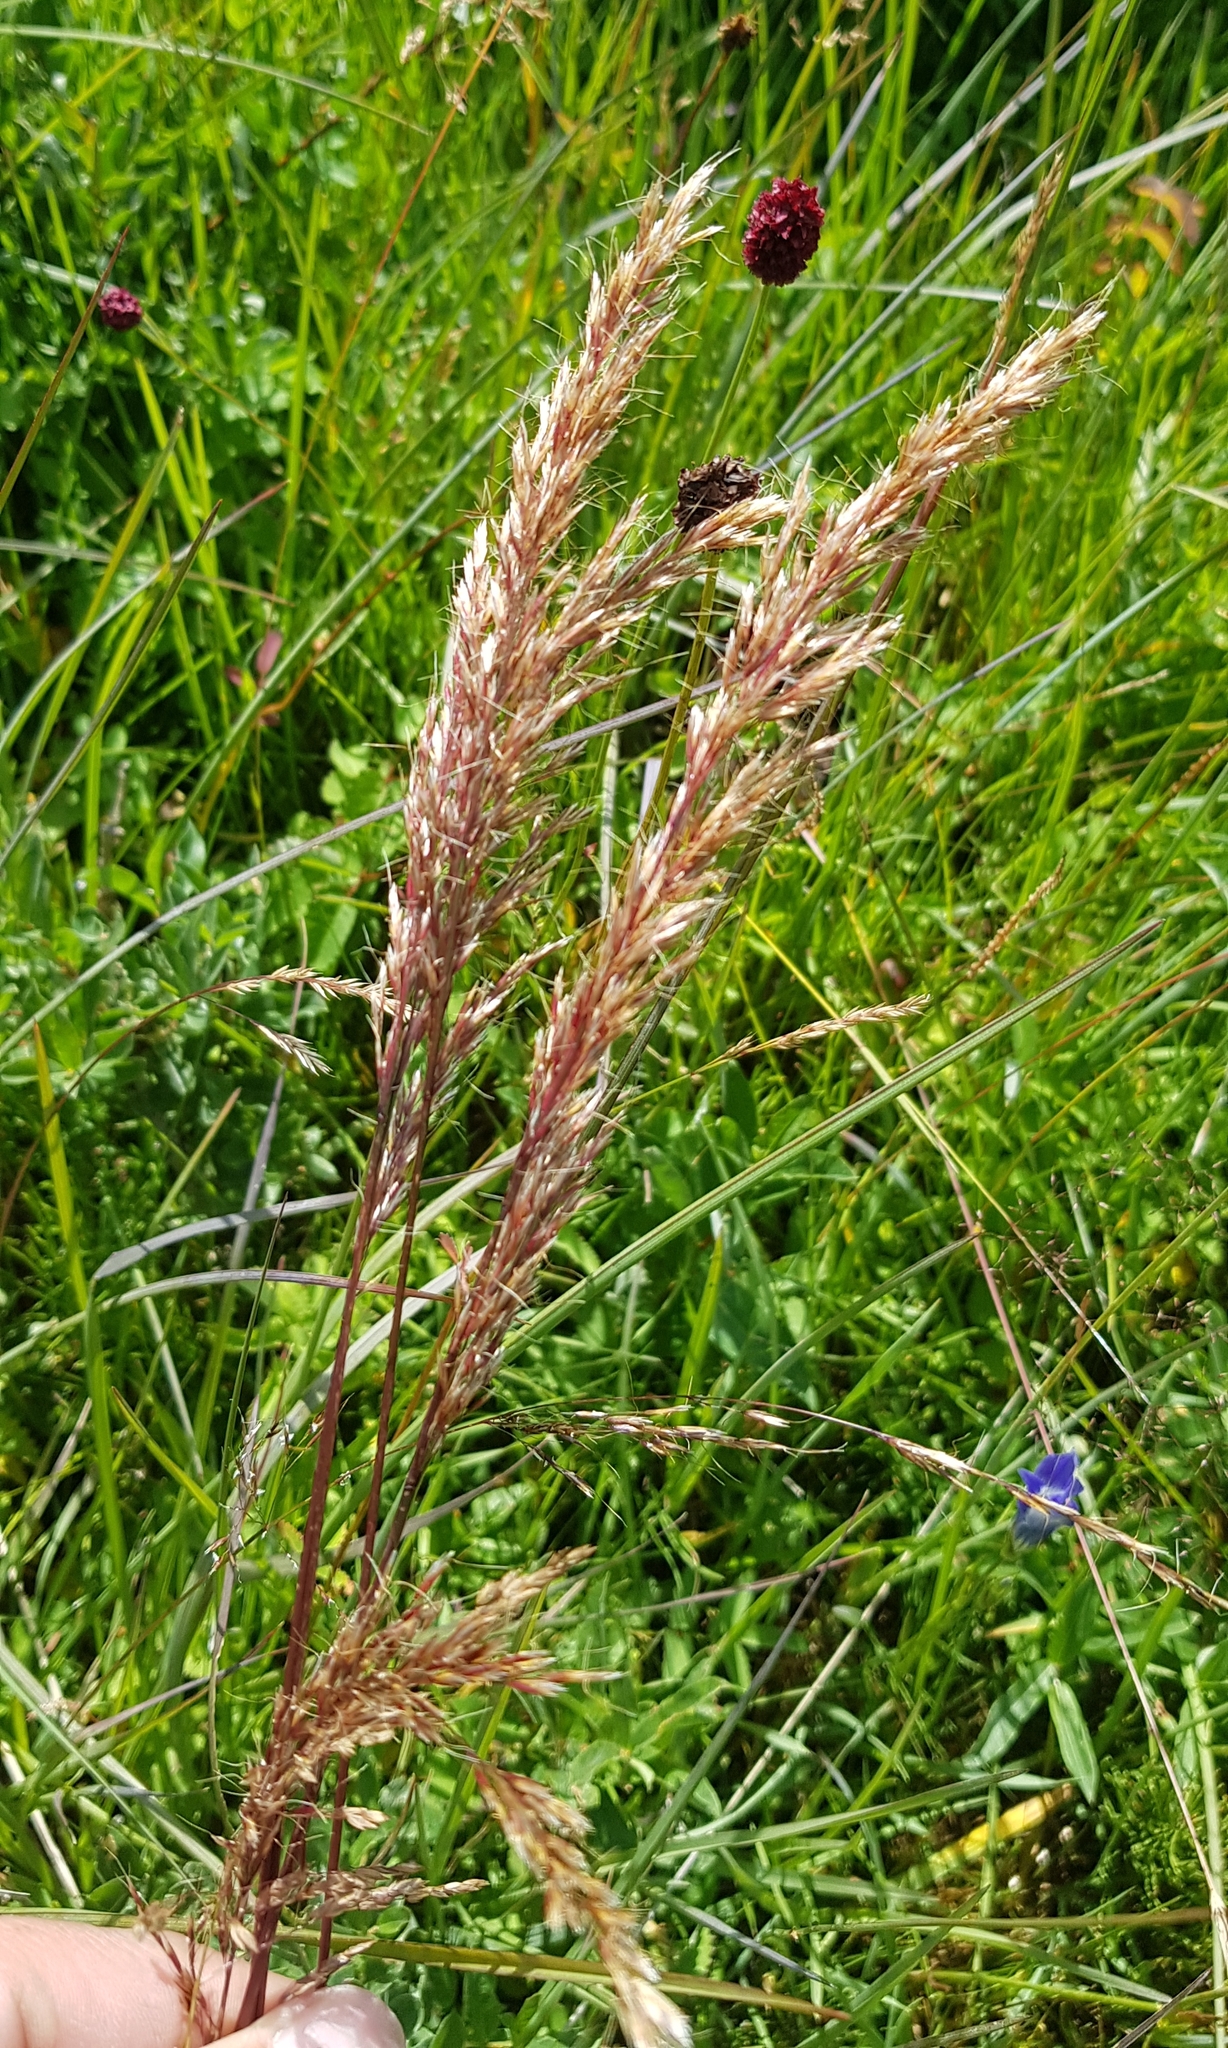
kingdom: Plantae
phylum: Tracheophyta
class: Liliopsida
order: Poales
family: Poaceae
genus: Calamagrostis
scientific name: Calamagrostis epigejos
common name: Wood small-reed
